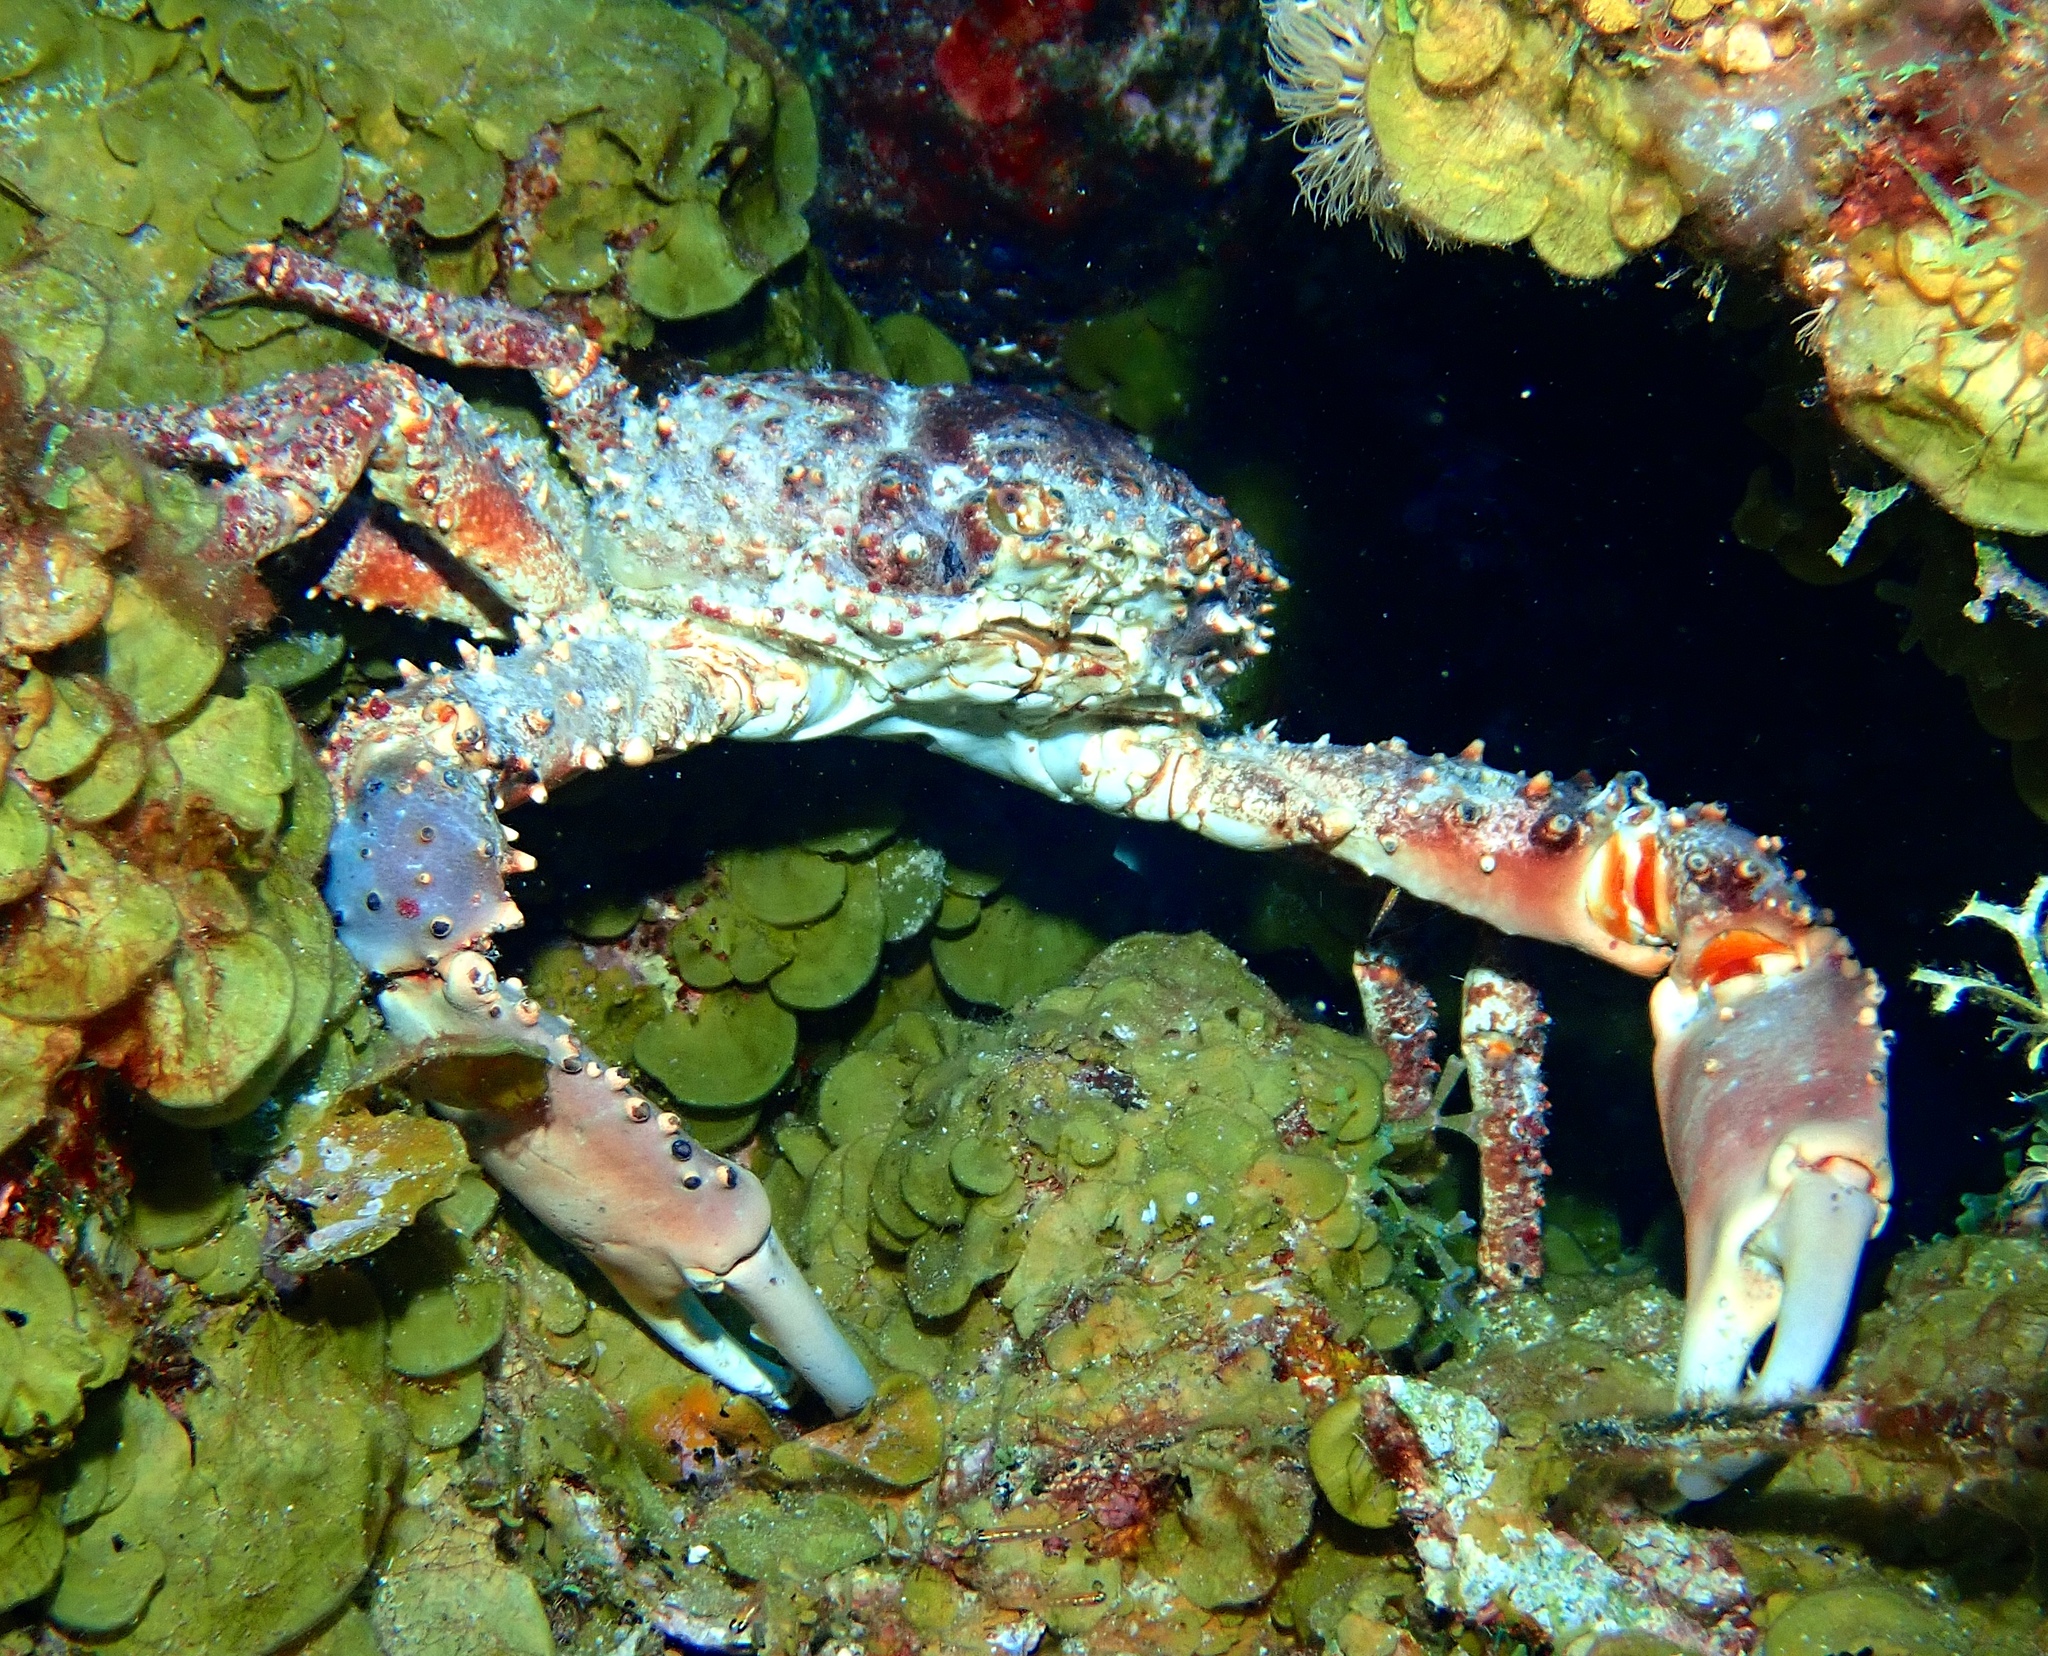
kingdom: Animalia
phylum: Arthropoda
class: Malacostraca
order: Decapoda
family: Mithracidae
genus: Maguimithrax
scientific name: Maguimithrax spinosissimus
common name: Spiny spider crab
